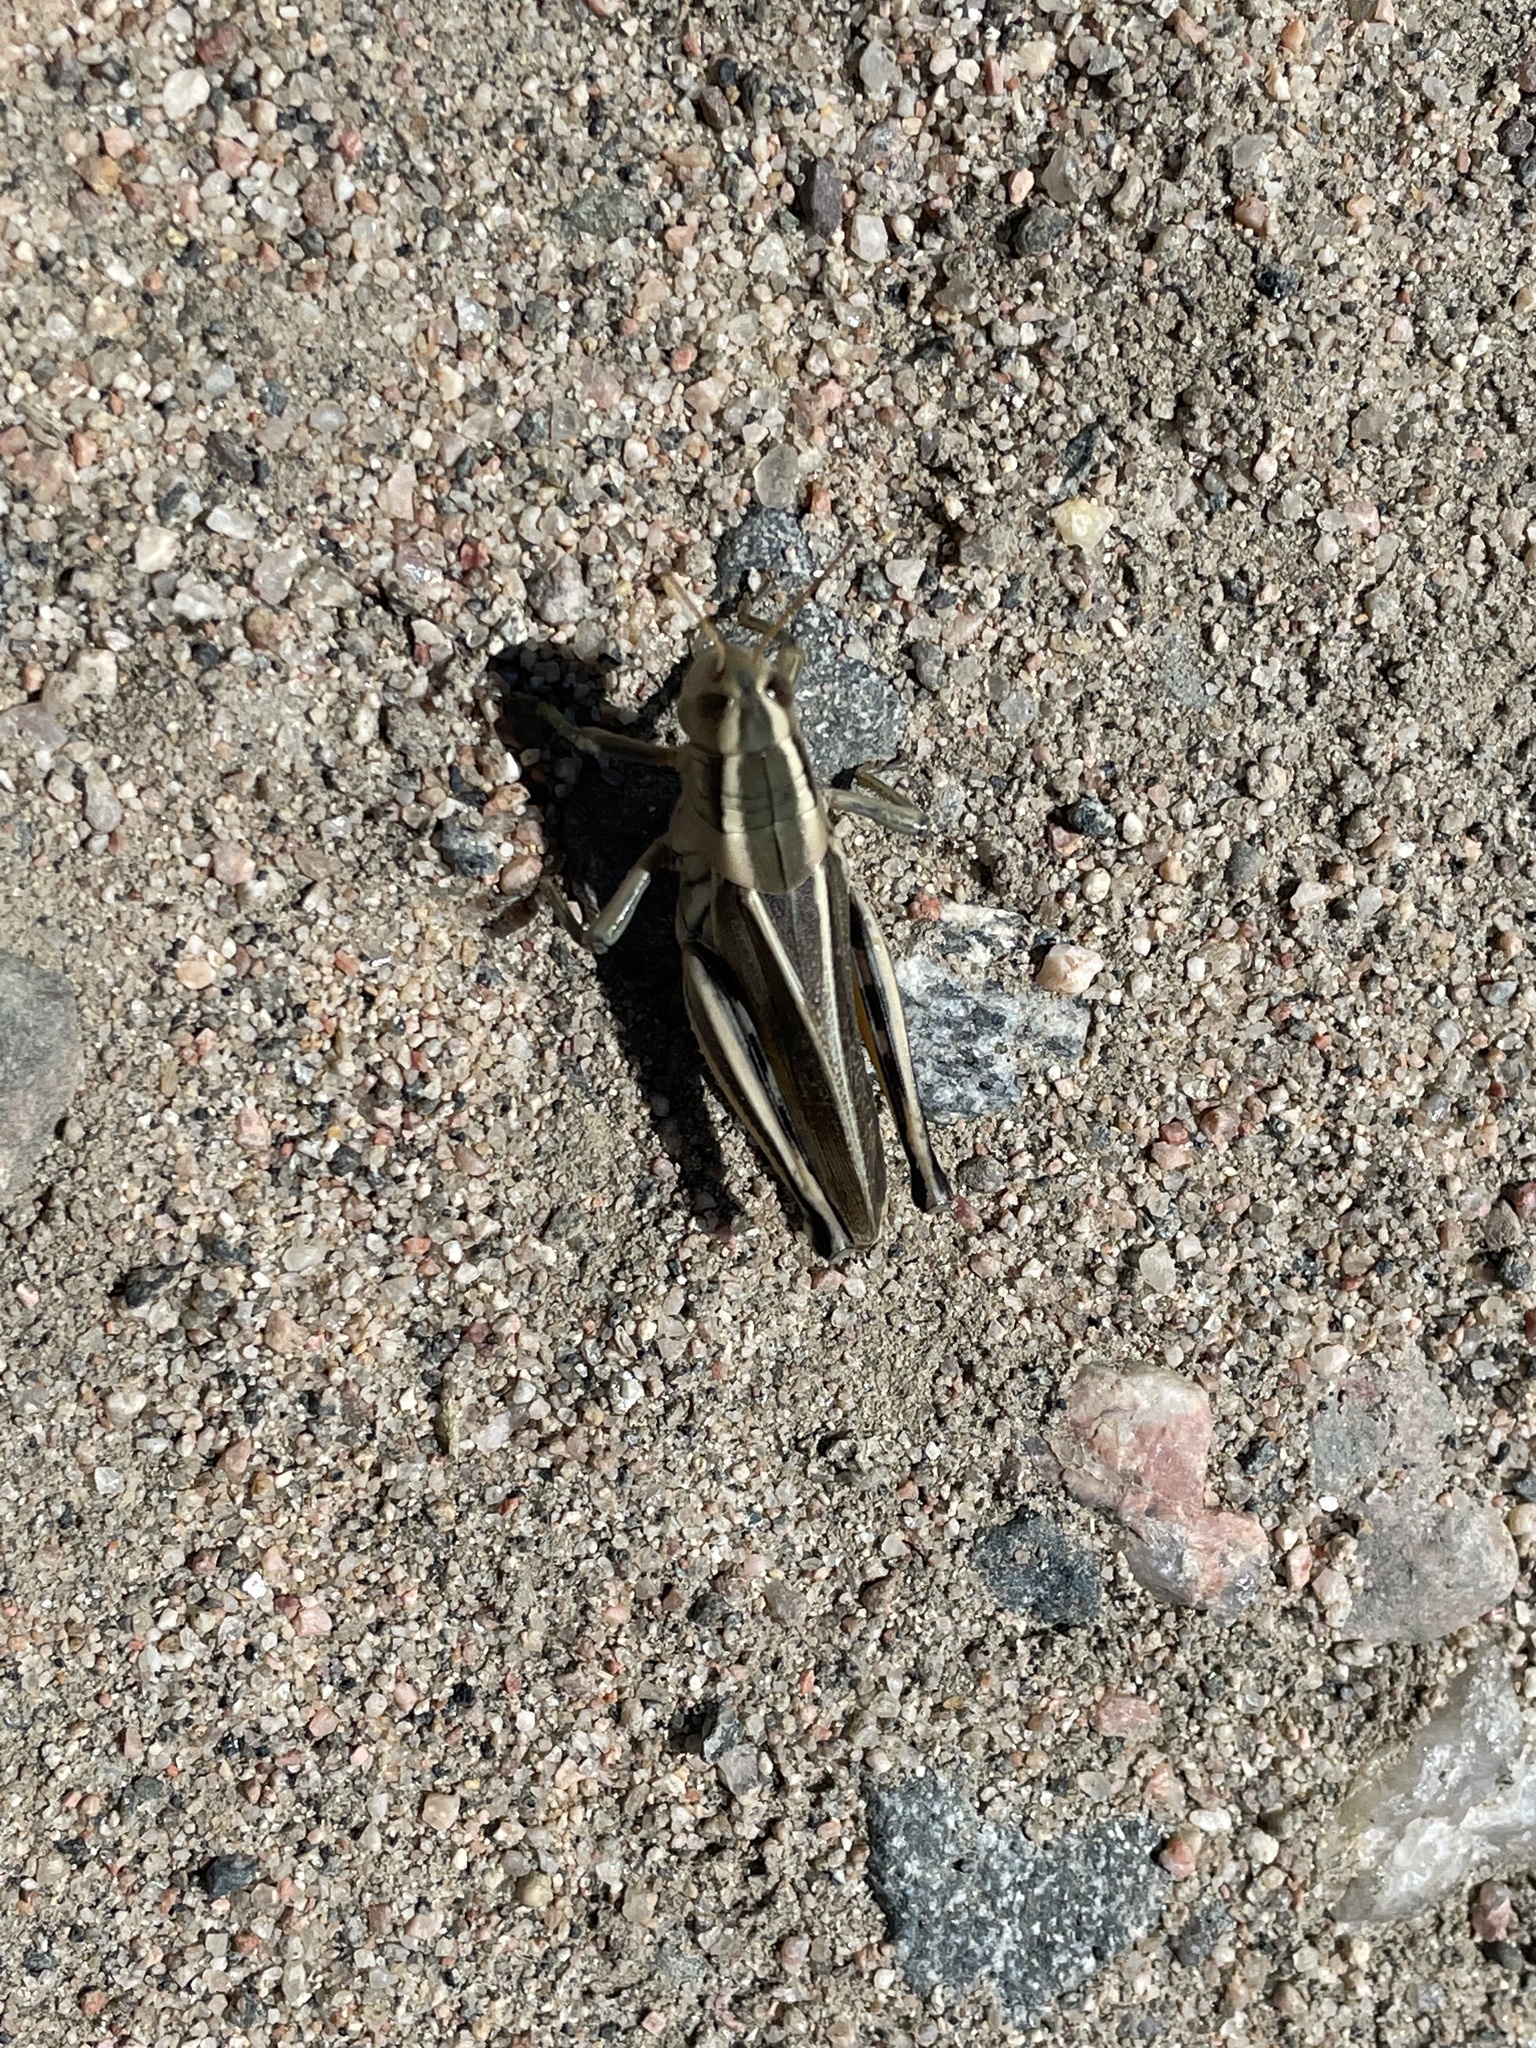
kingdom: Animalia
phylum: Arthropoda
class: Insecta
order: Orthoptera
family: Acrididae
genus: Melanoplus
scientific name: Melanoplus bivittatus
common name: Two-striped grasshopper
